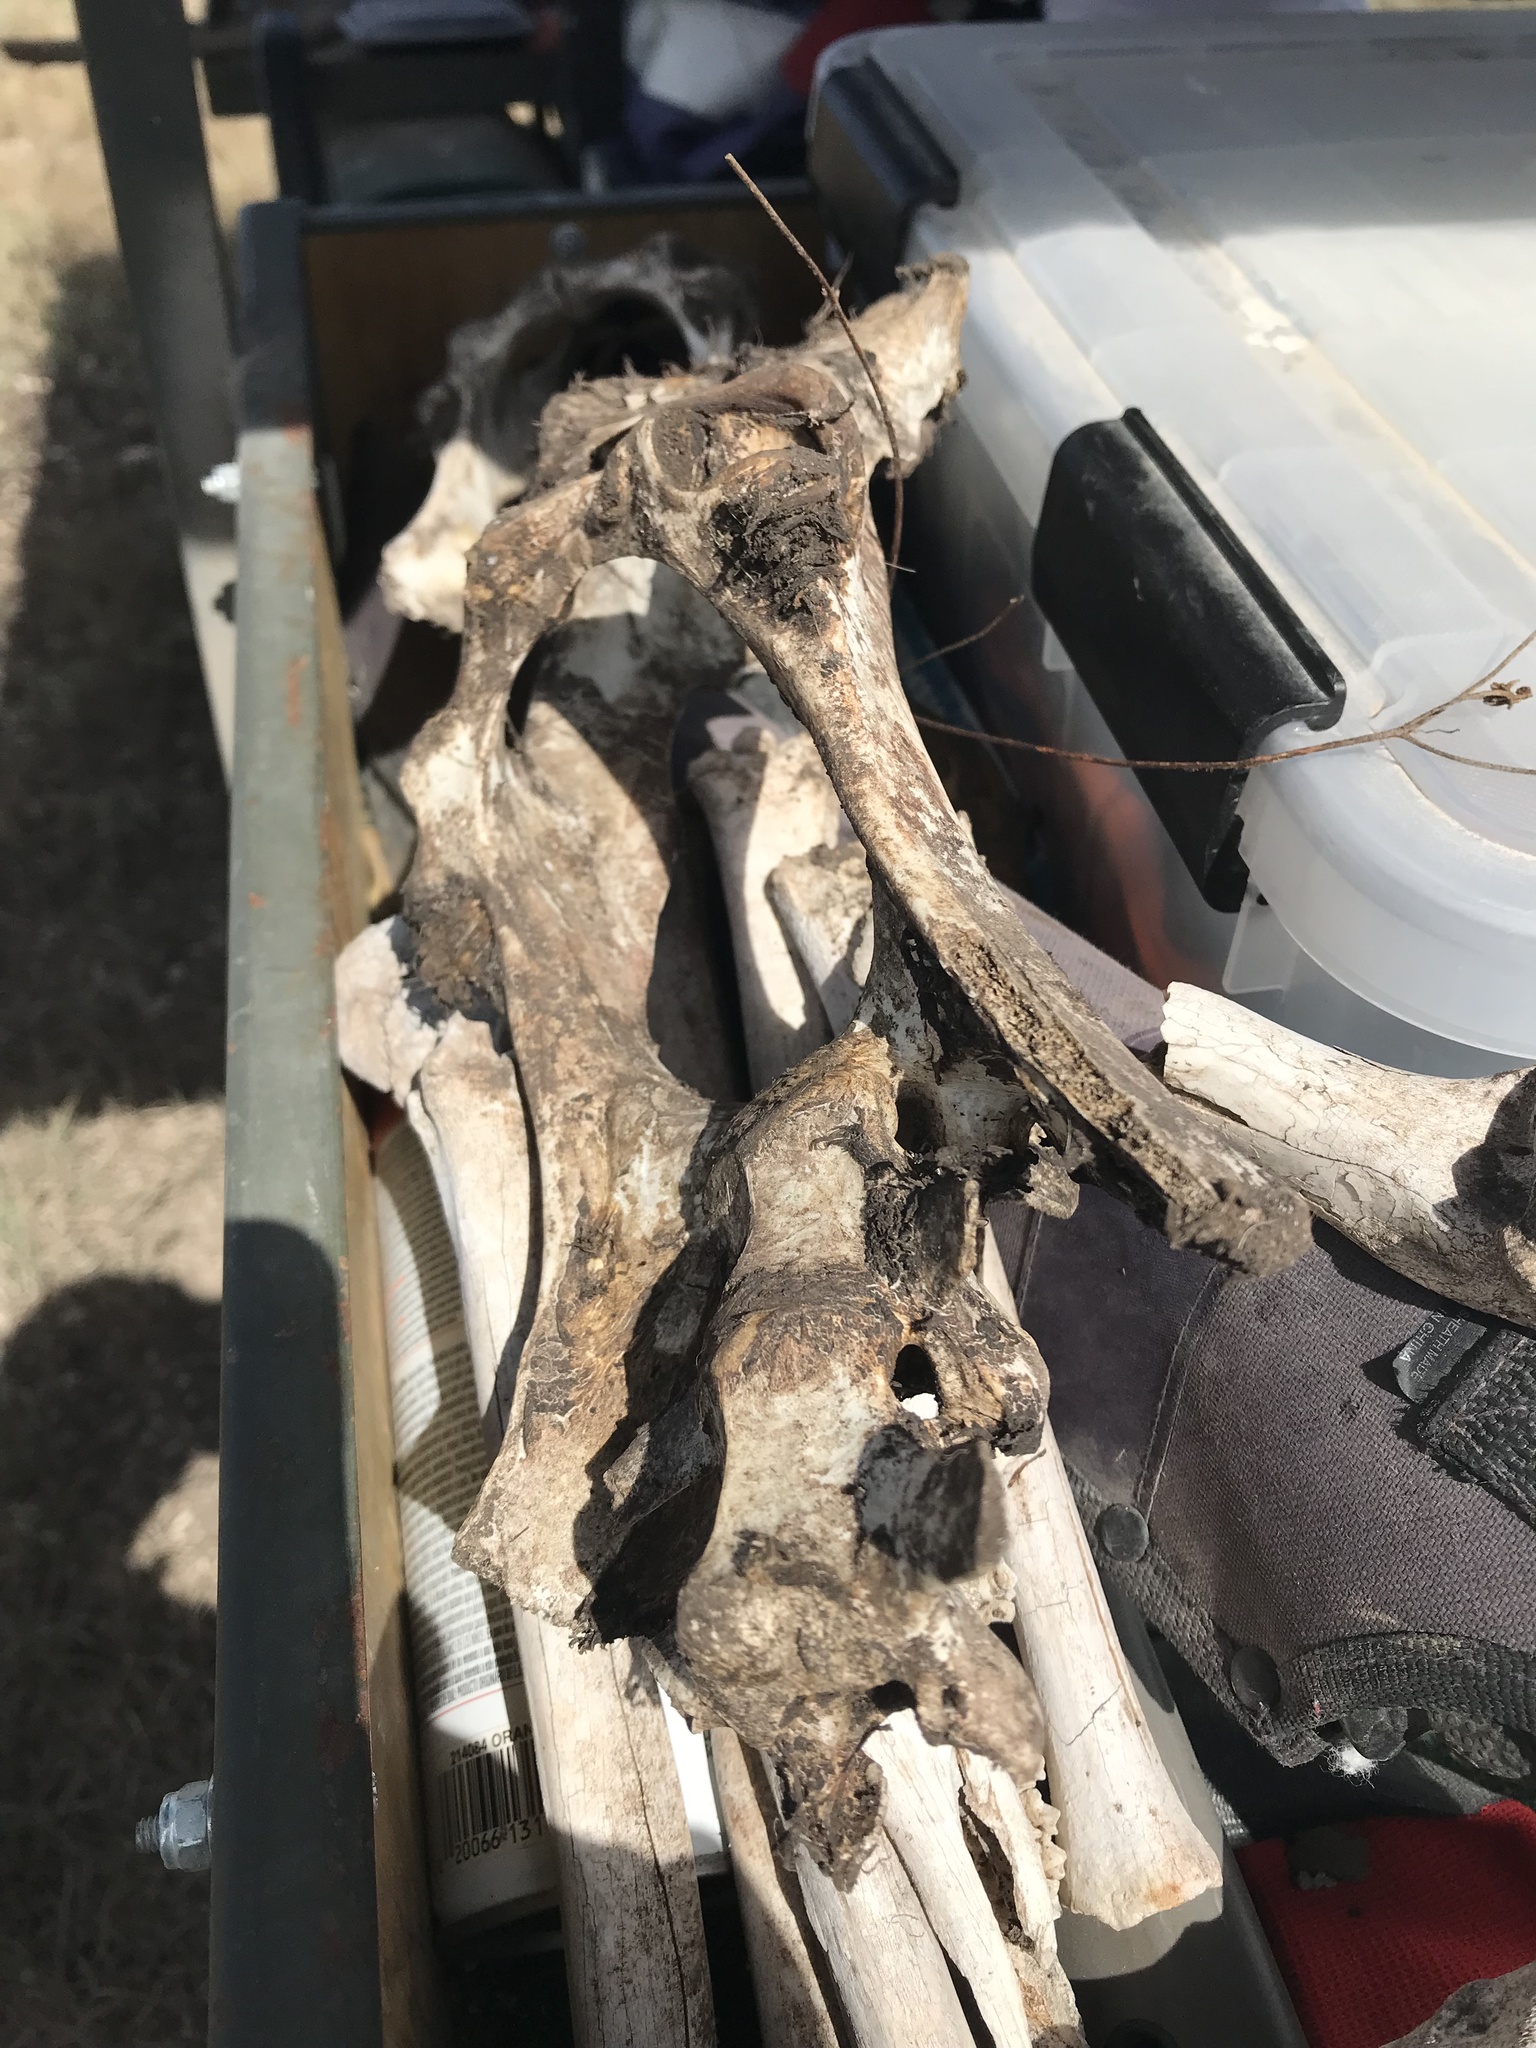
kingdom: Animalia
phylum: Chordata
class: Mammalia
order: Artiodactyla
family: Cervidae
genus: Odocoileus
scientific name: Odocoileus virginianus
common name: White-tailed deer
